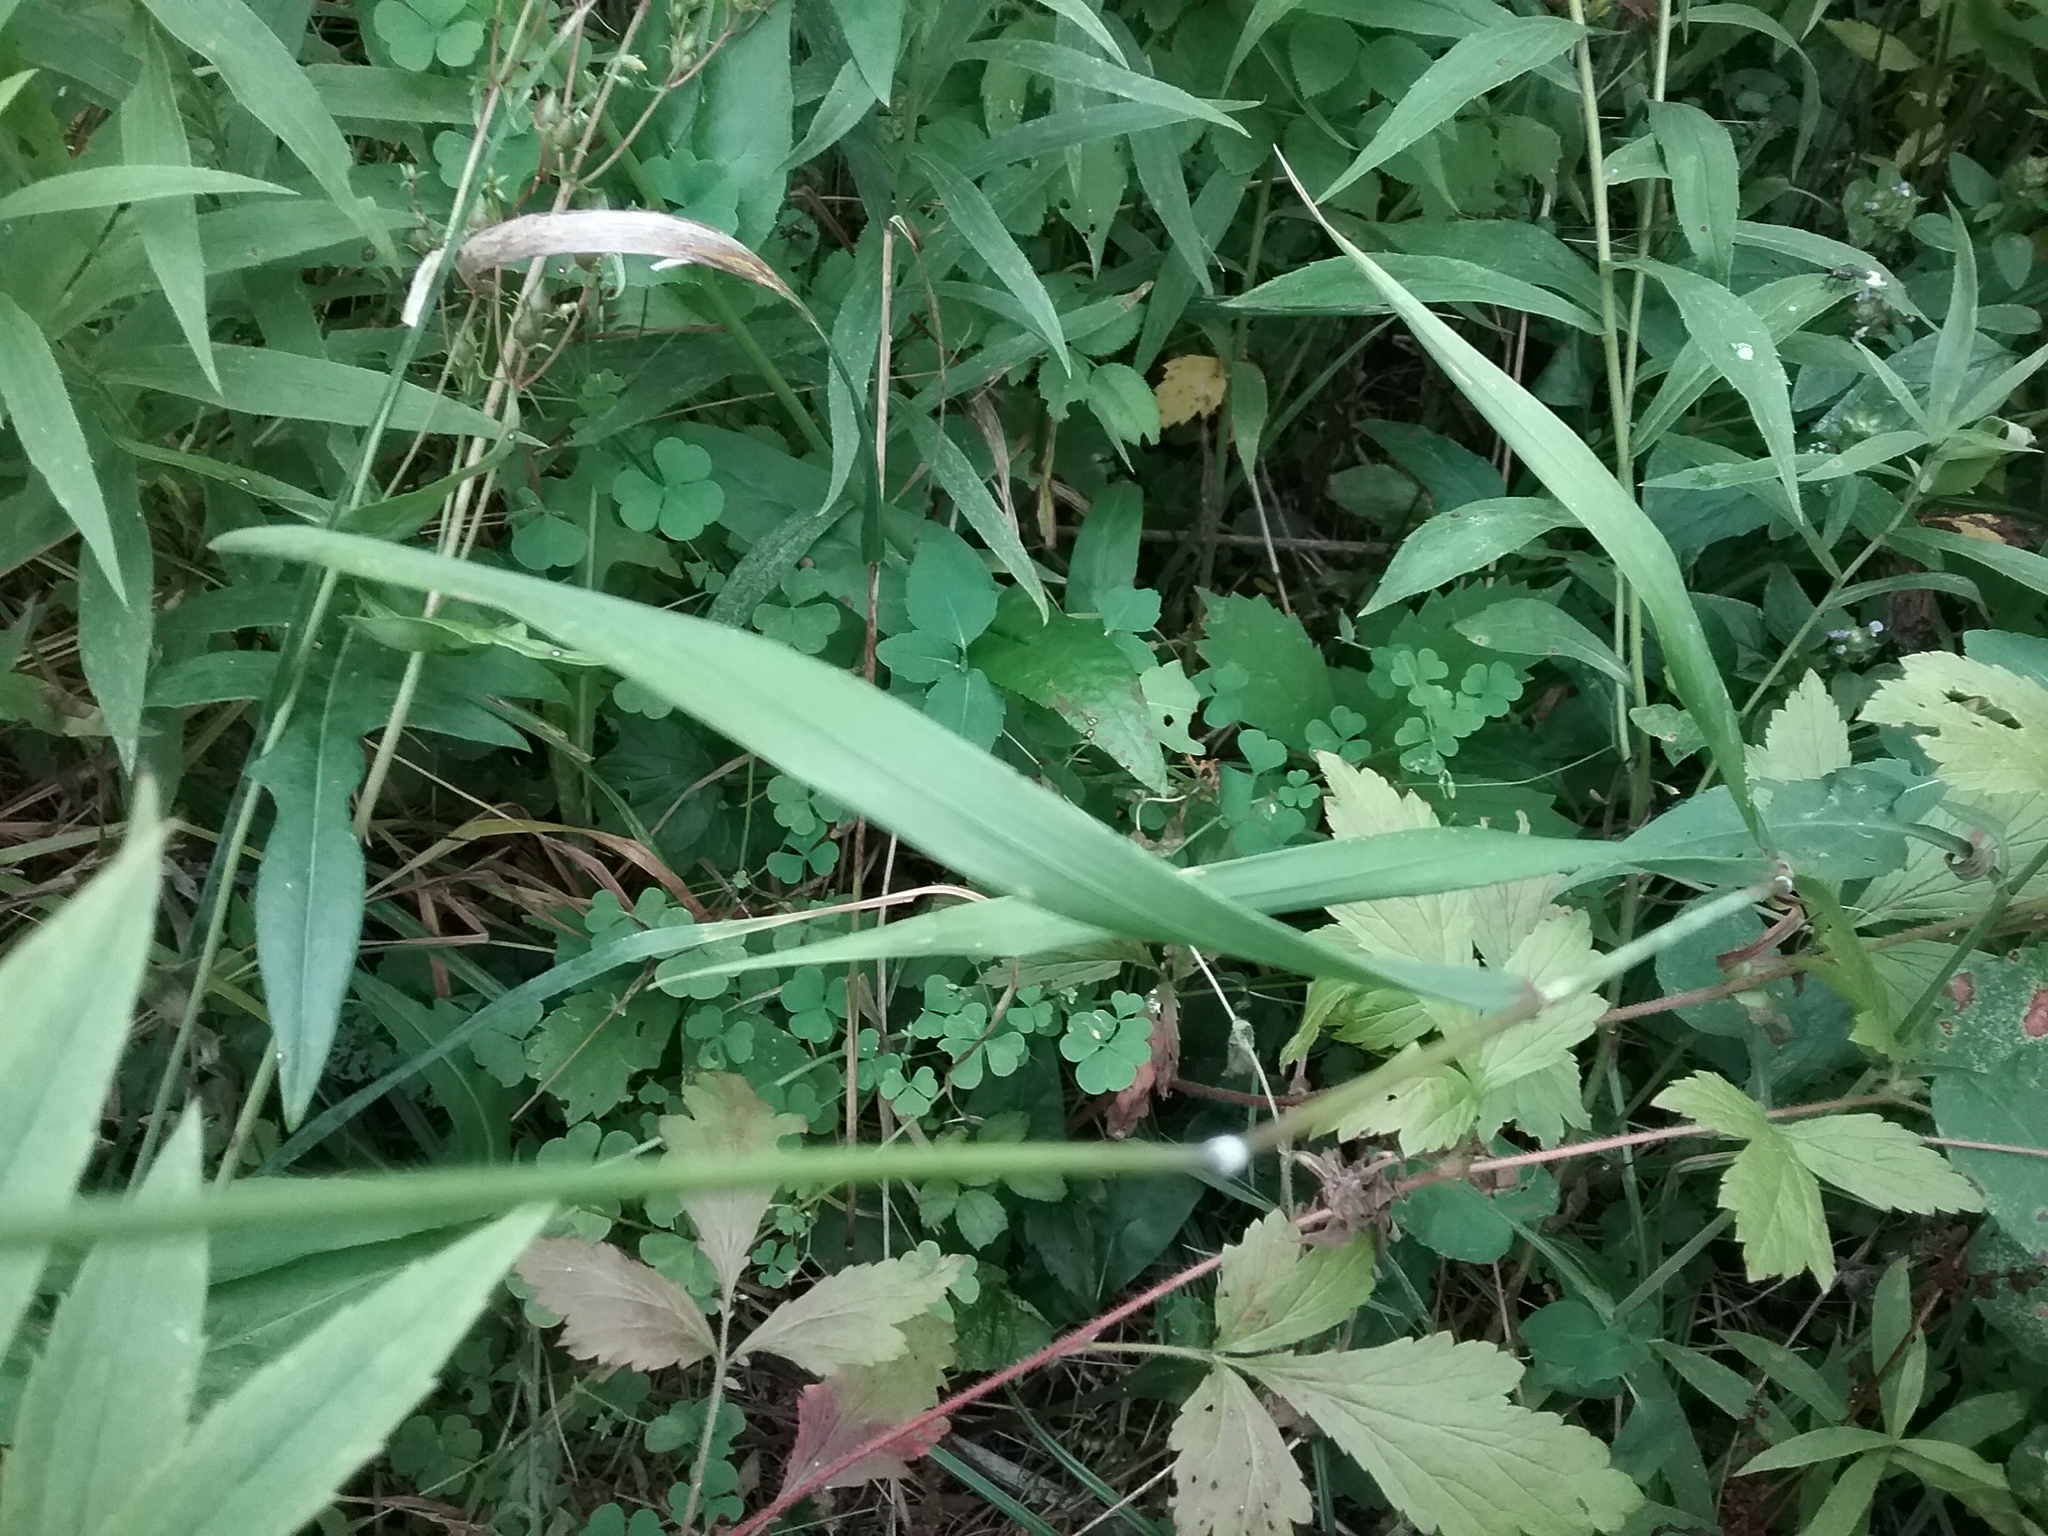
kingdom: Plantae
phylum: Tracheophyta
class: Liliopsida
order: Poales
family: Poaceae
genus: Elymus
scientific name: Elymus hystrix
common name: Bottlebrush grass
